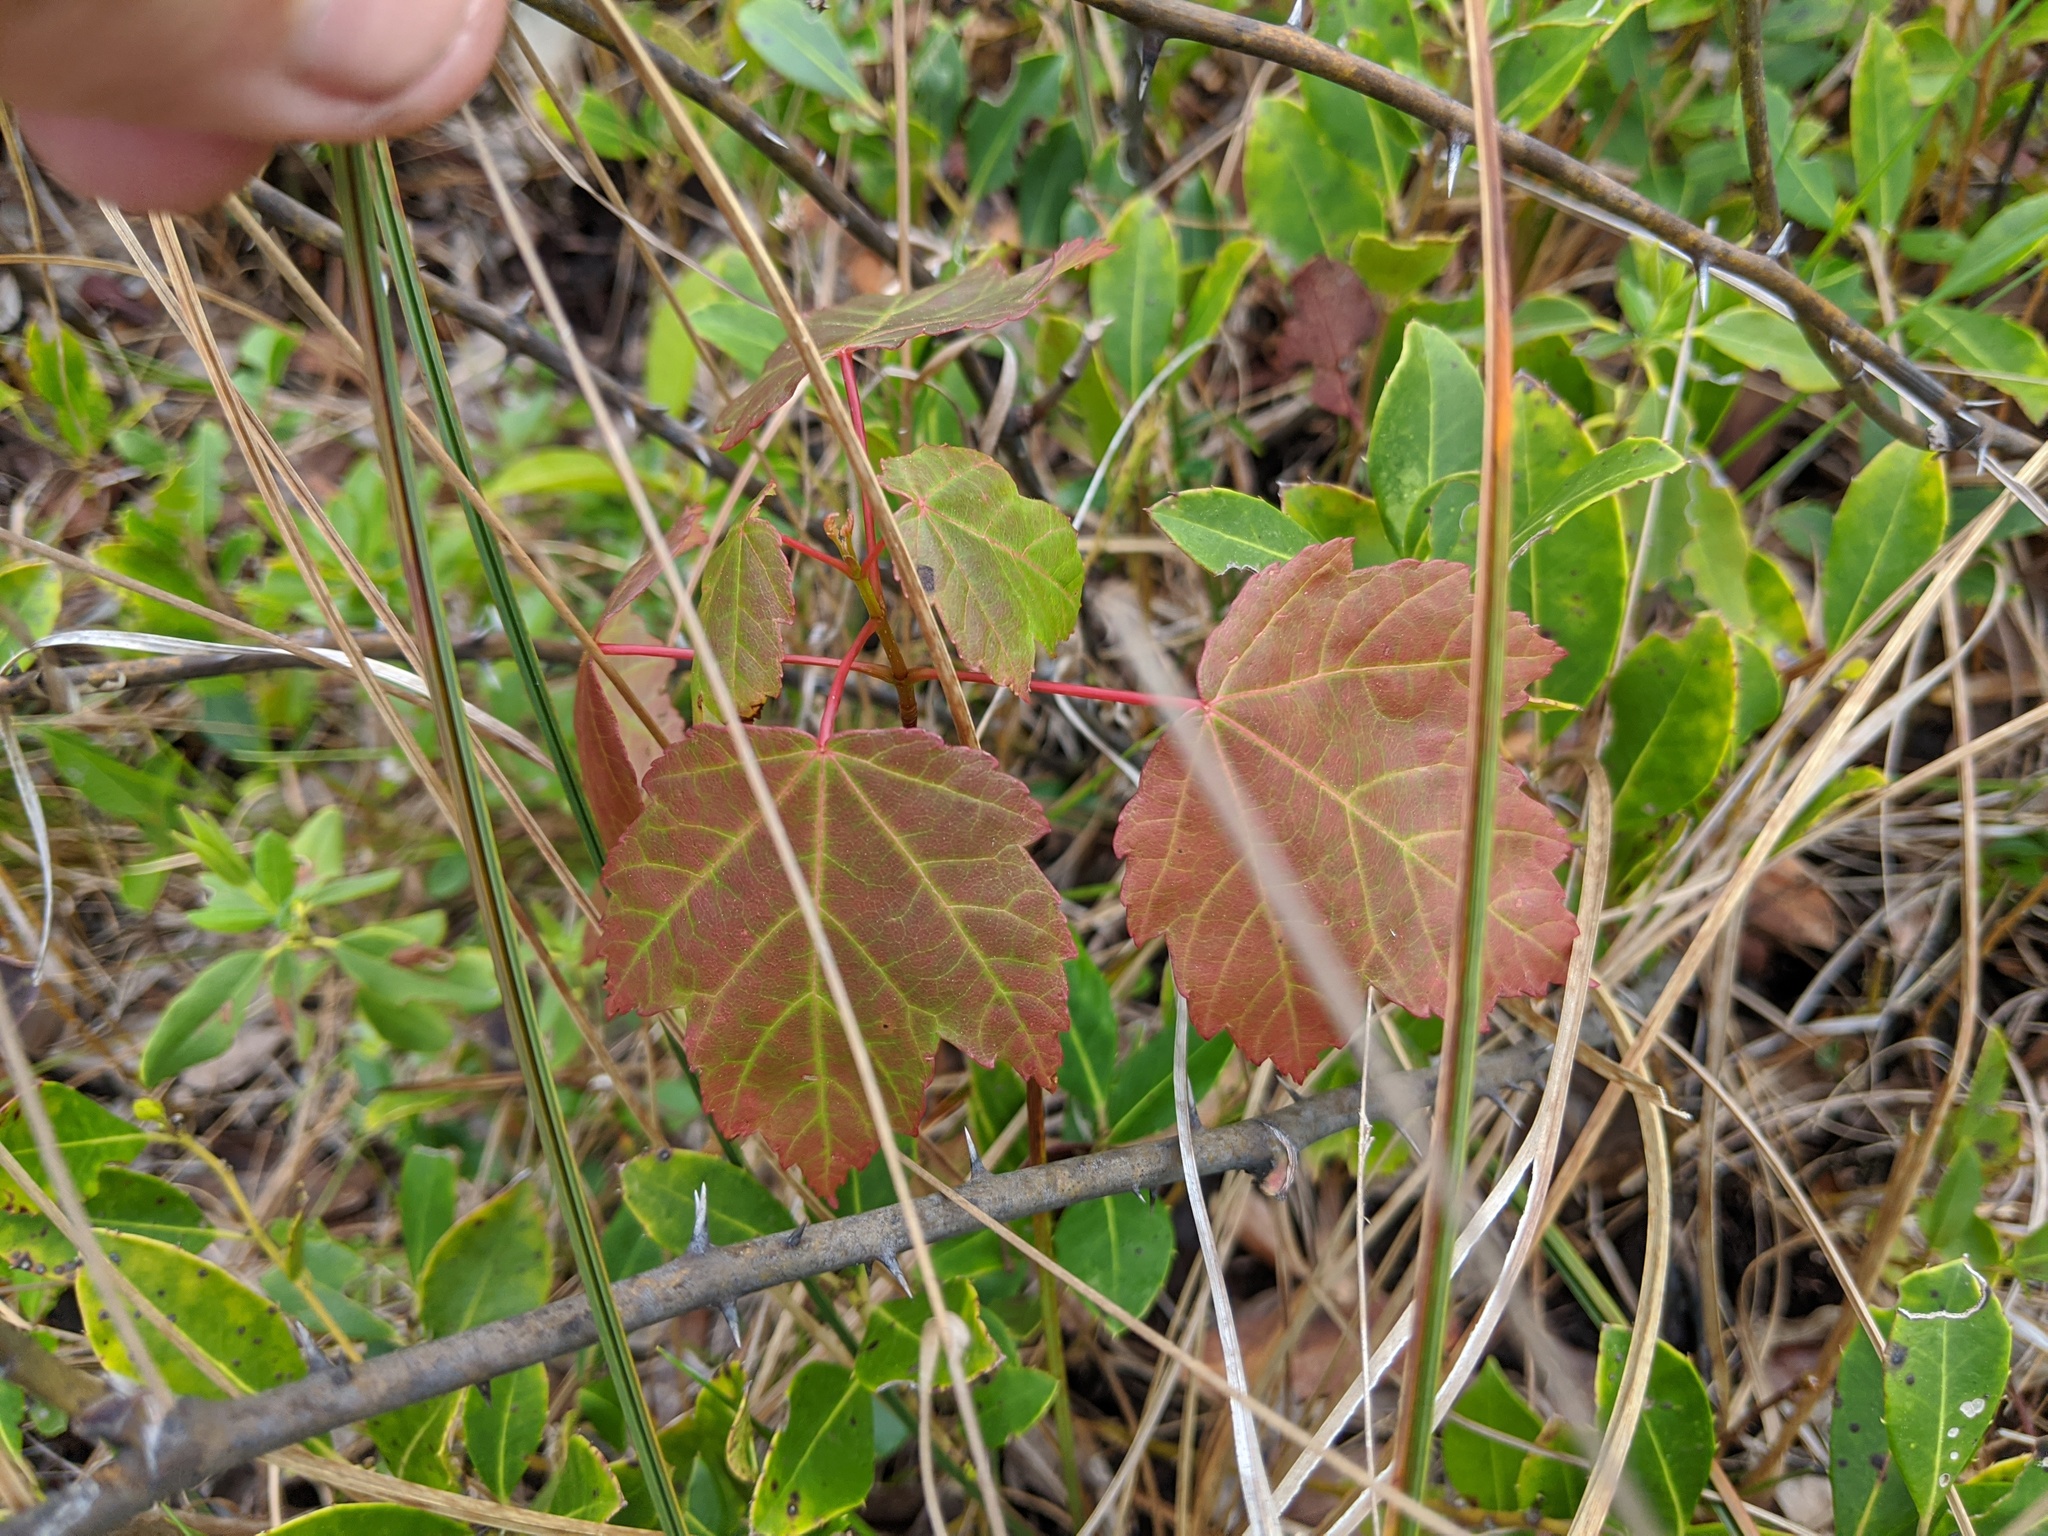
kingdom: Plantae
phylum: Tracheophyta
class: Magnoliopsida
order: Sapindales
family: Sapindaceae
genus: Acer
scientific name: Acer rubrum
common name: Red maple
